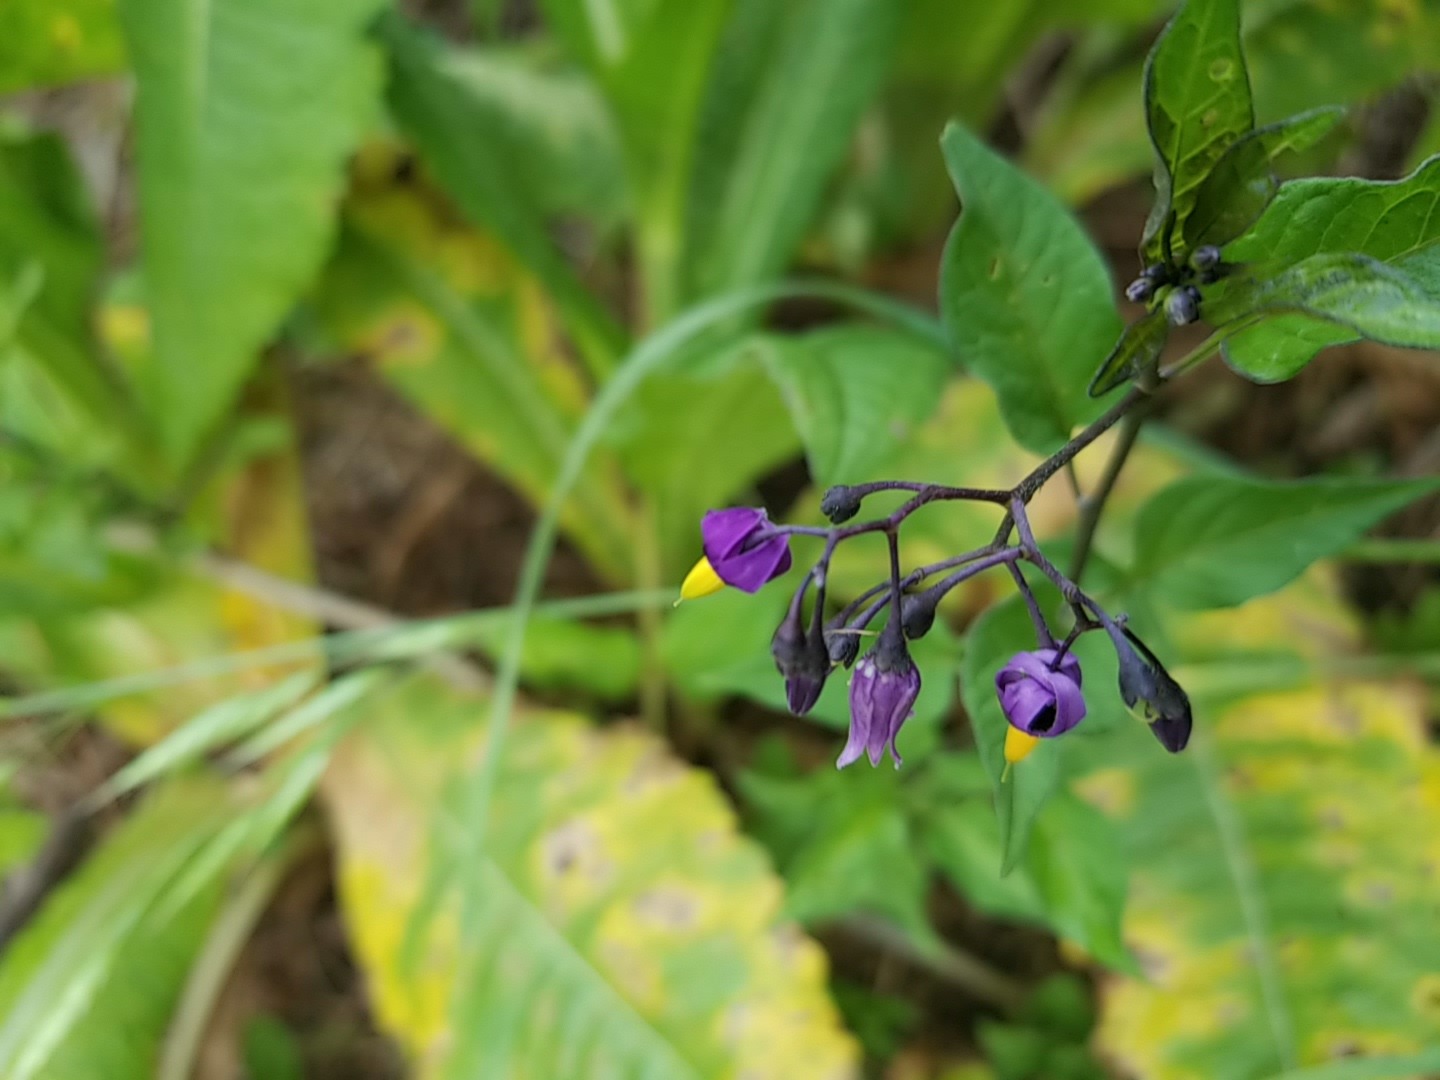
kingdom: Plantae
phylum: Tracheophyta
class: Magnoliopsida
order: Solanales
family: Solanaceae
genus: Solanum
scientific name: Solanum dulcamara
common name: Climbing nightshade
